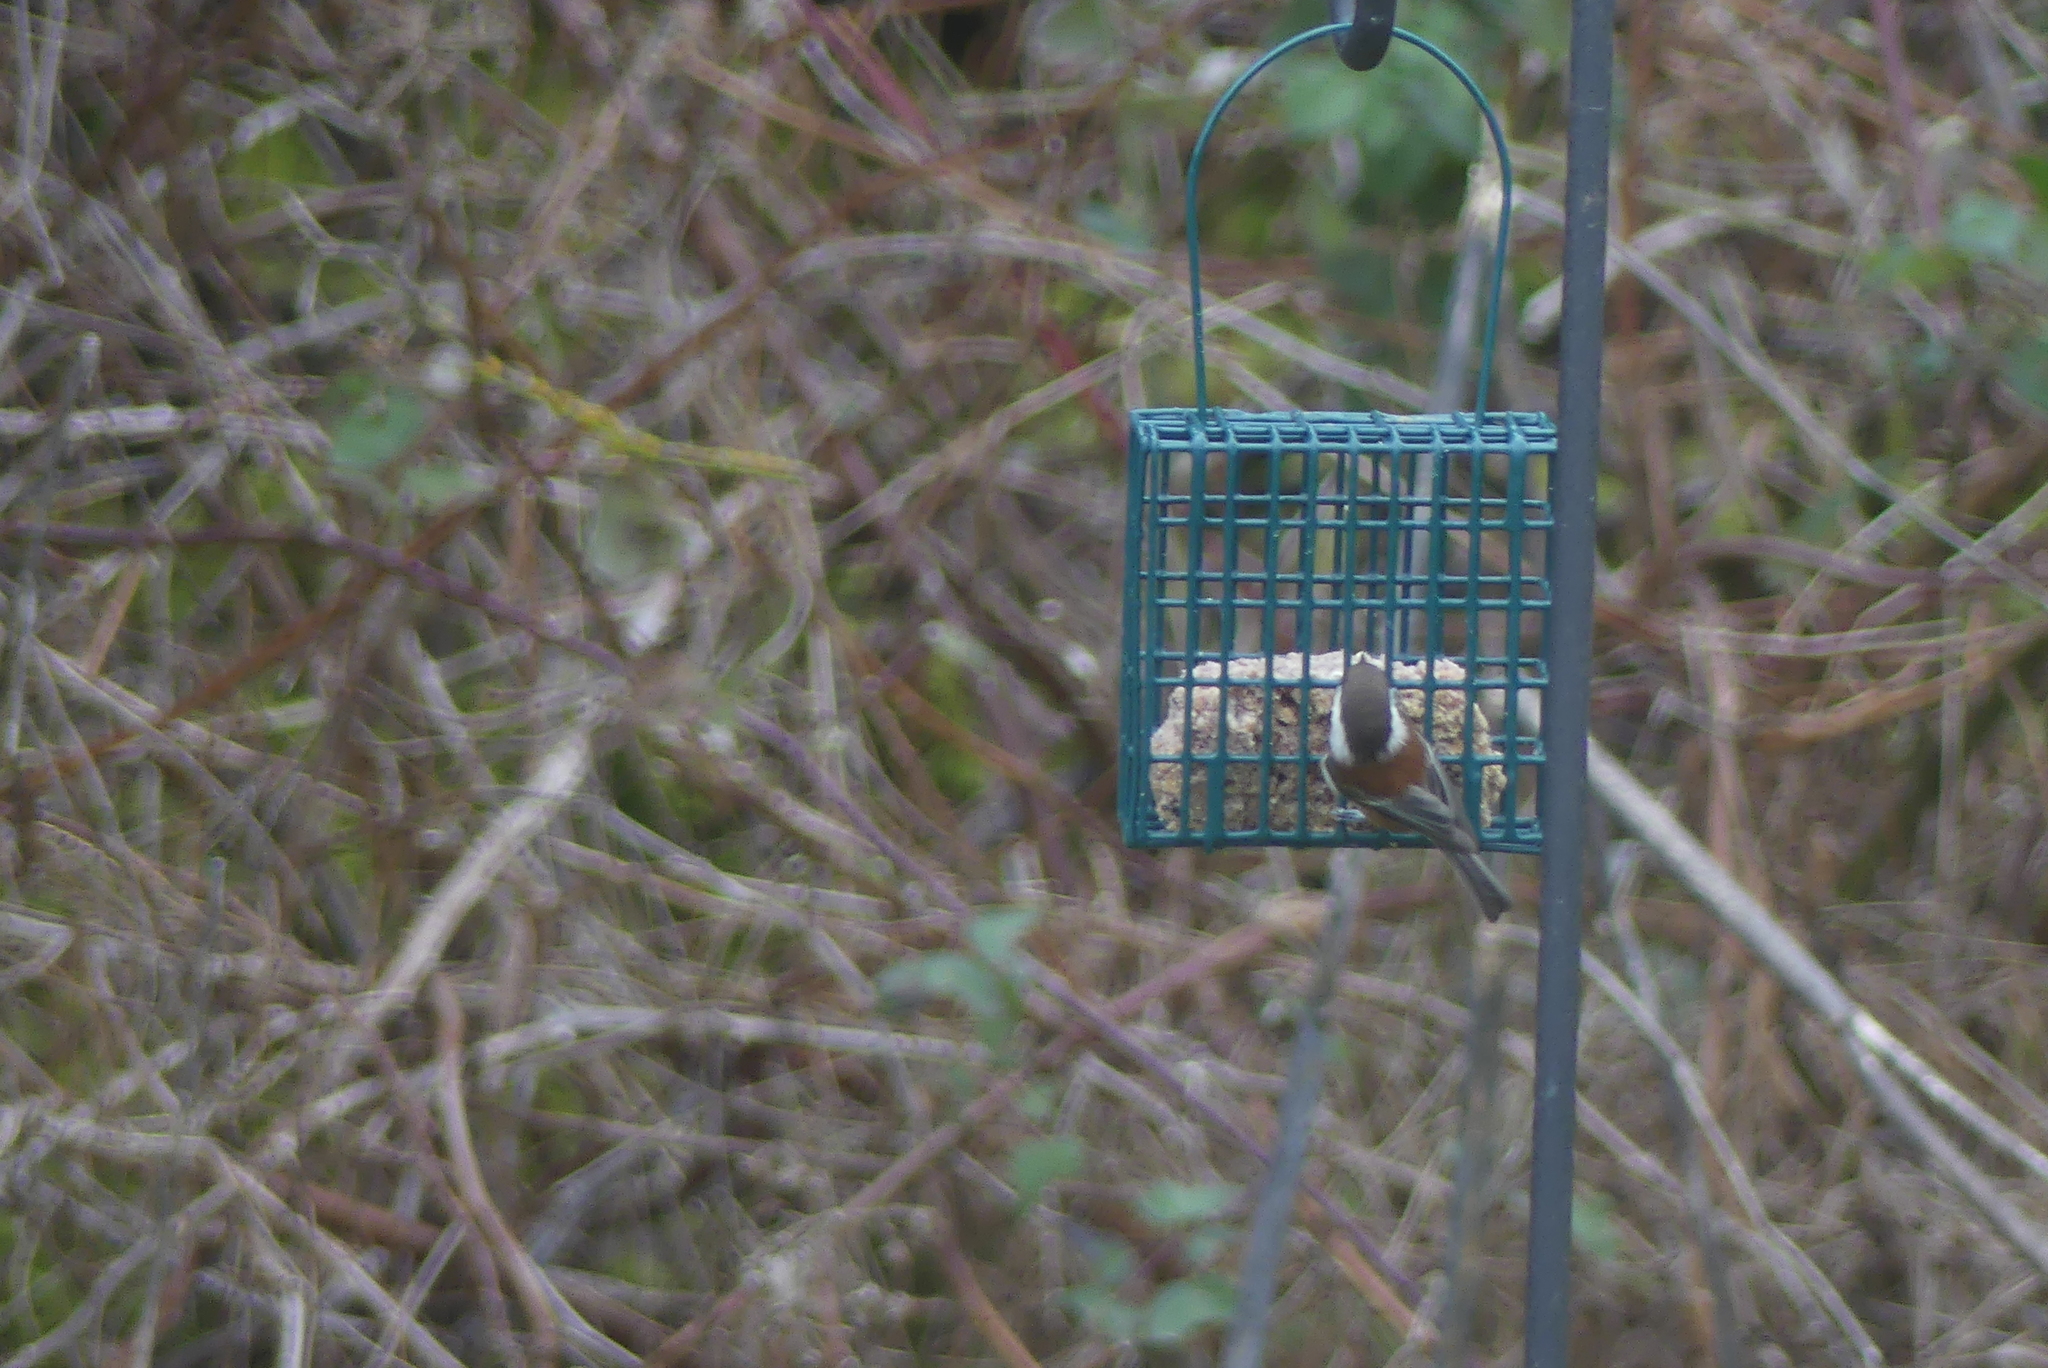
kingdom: Animalia
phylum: Chordata
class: Aves
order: Passeriformes
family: Paridae
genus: Poecile
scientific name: Poecile rufescens
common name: Chestnut-backed chickadee
